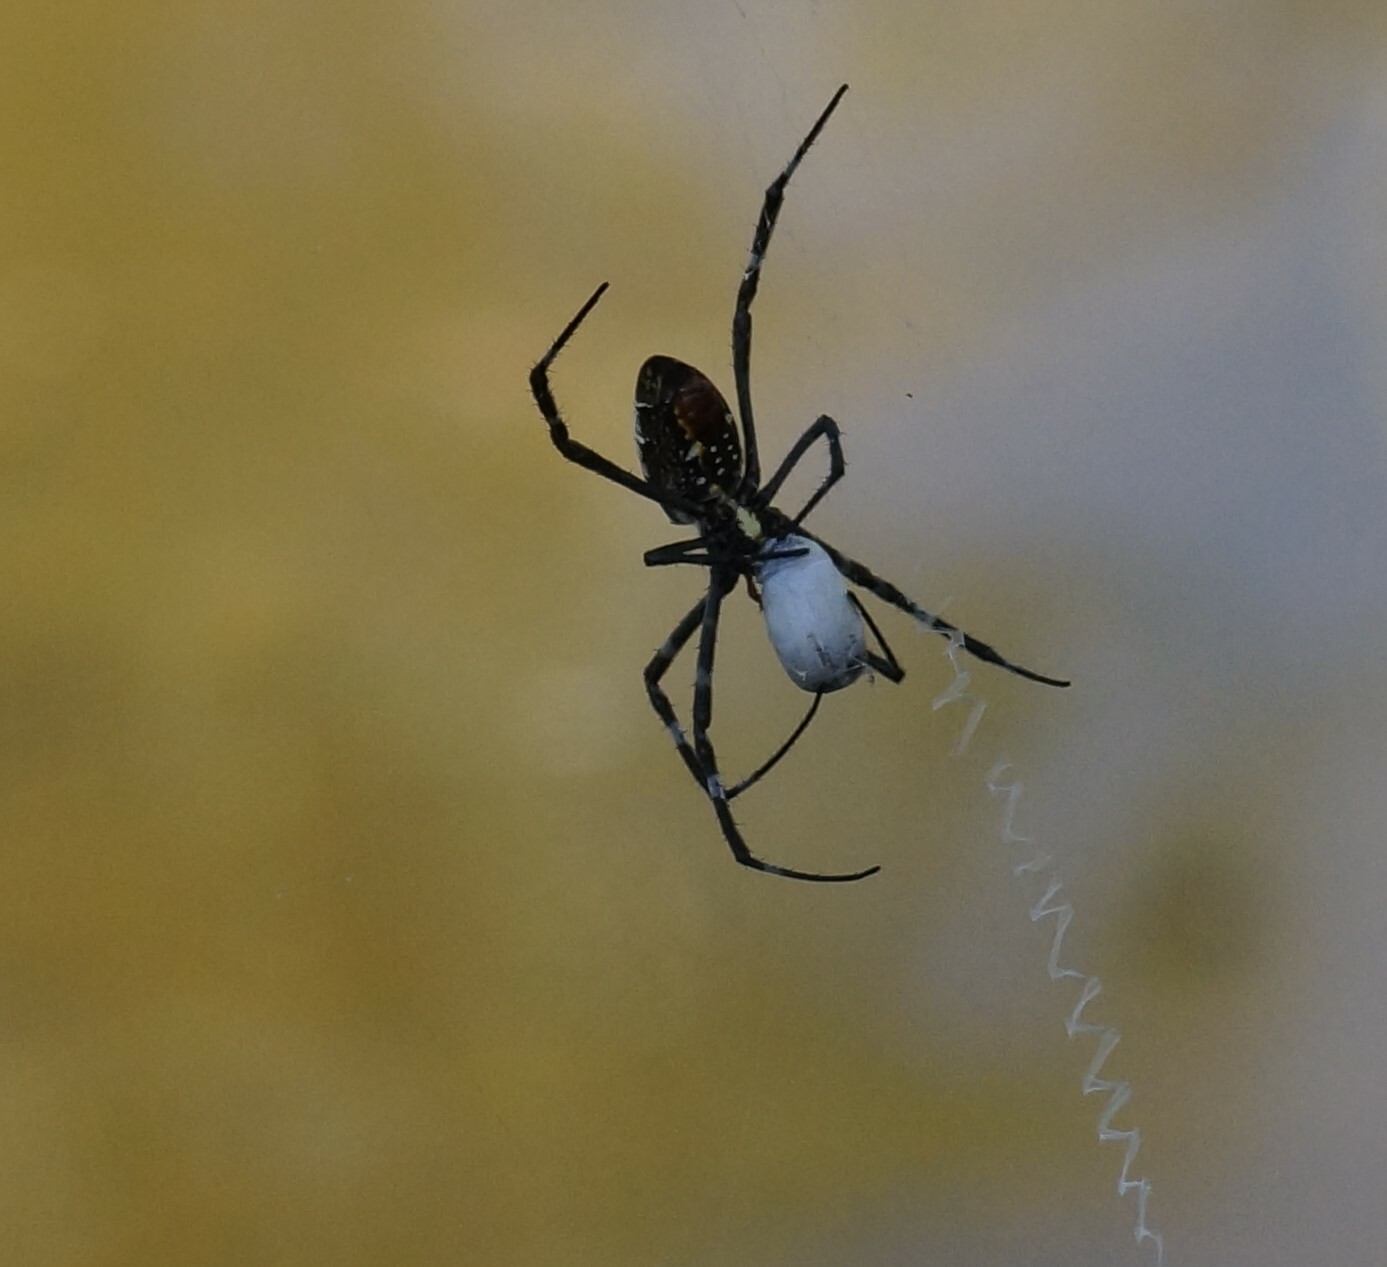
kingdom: Animalia
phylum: Arthropoda
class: Arachnida
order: Araneae
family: Araneidae
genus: Argiope
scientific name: Argiope radon
